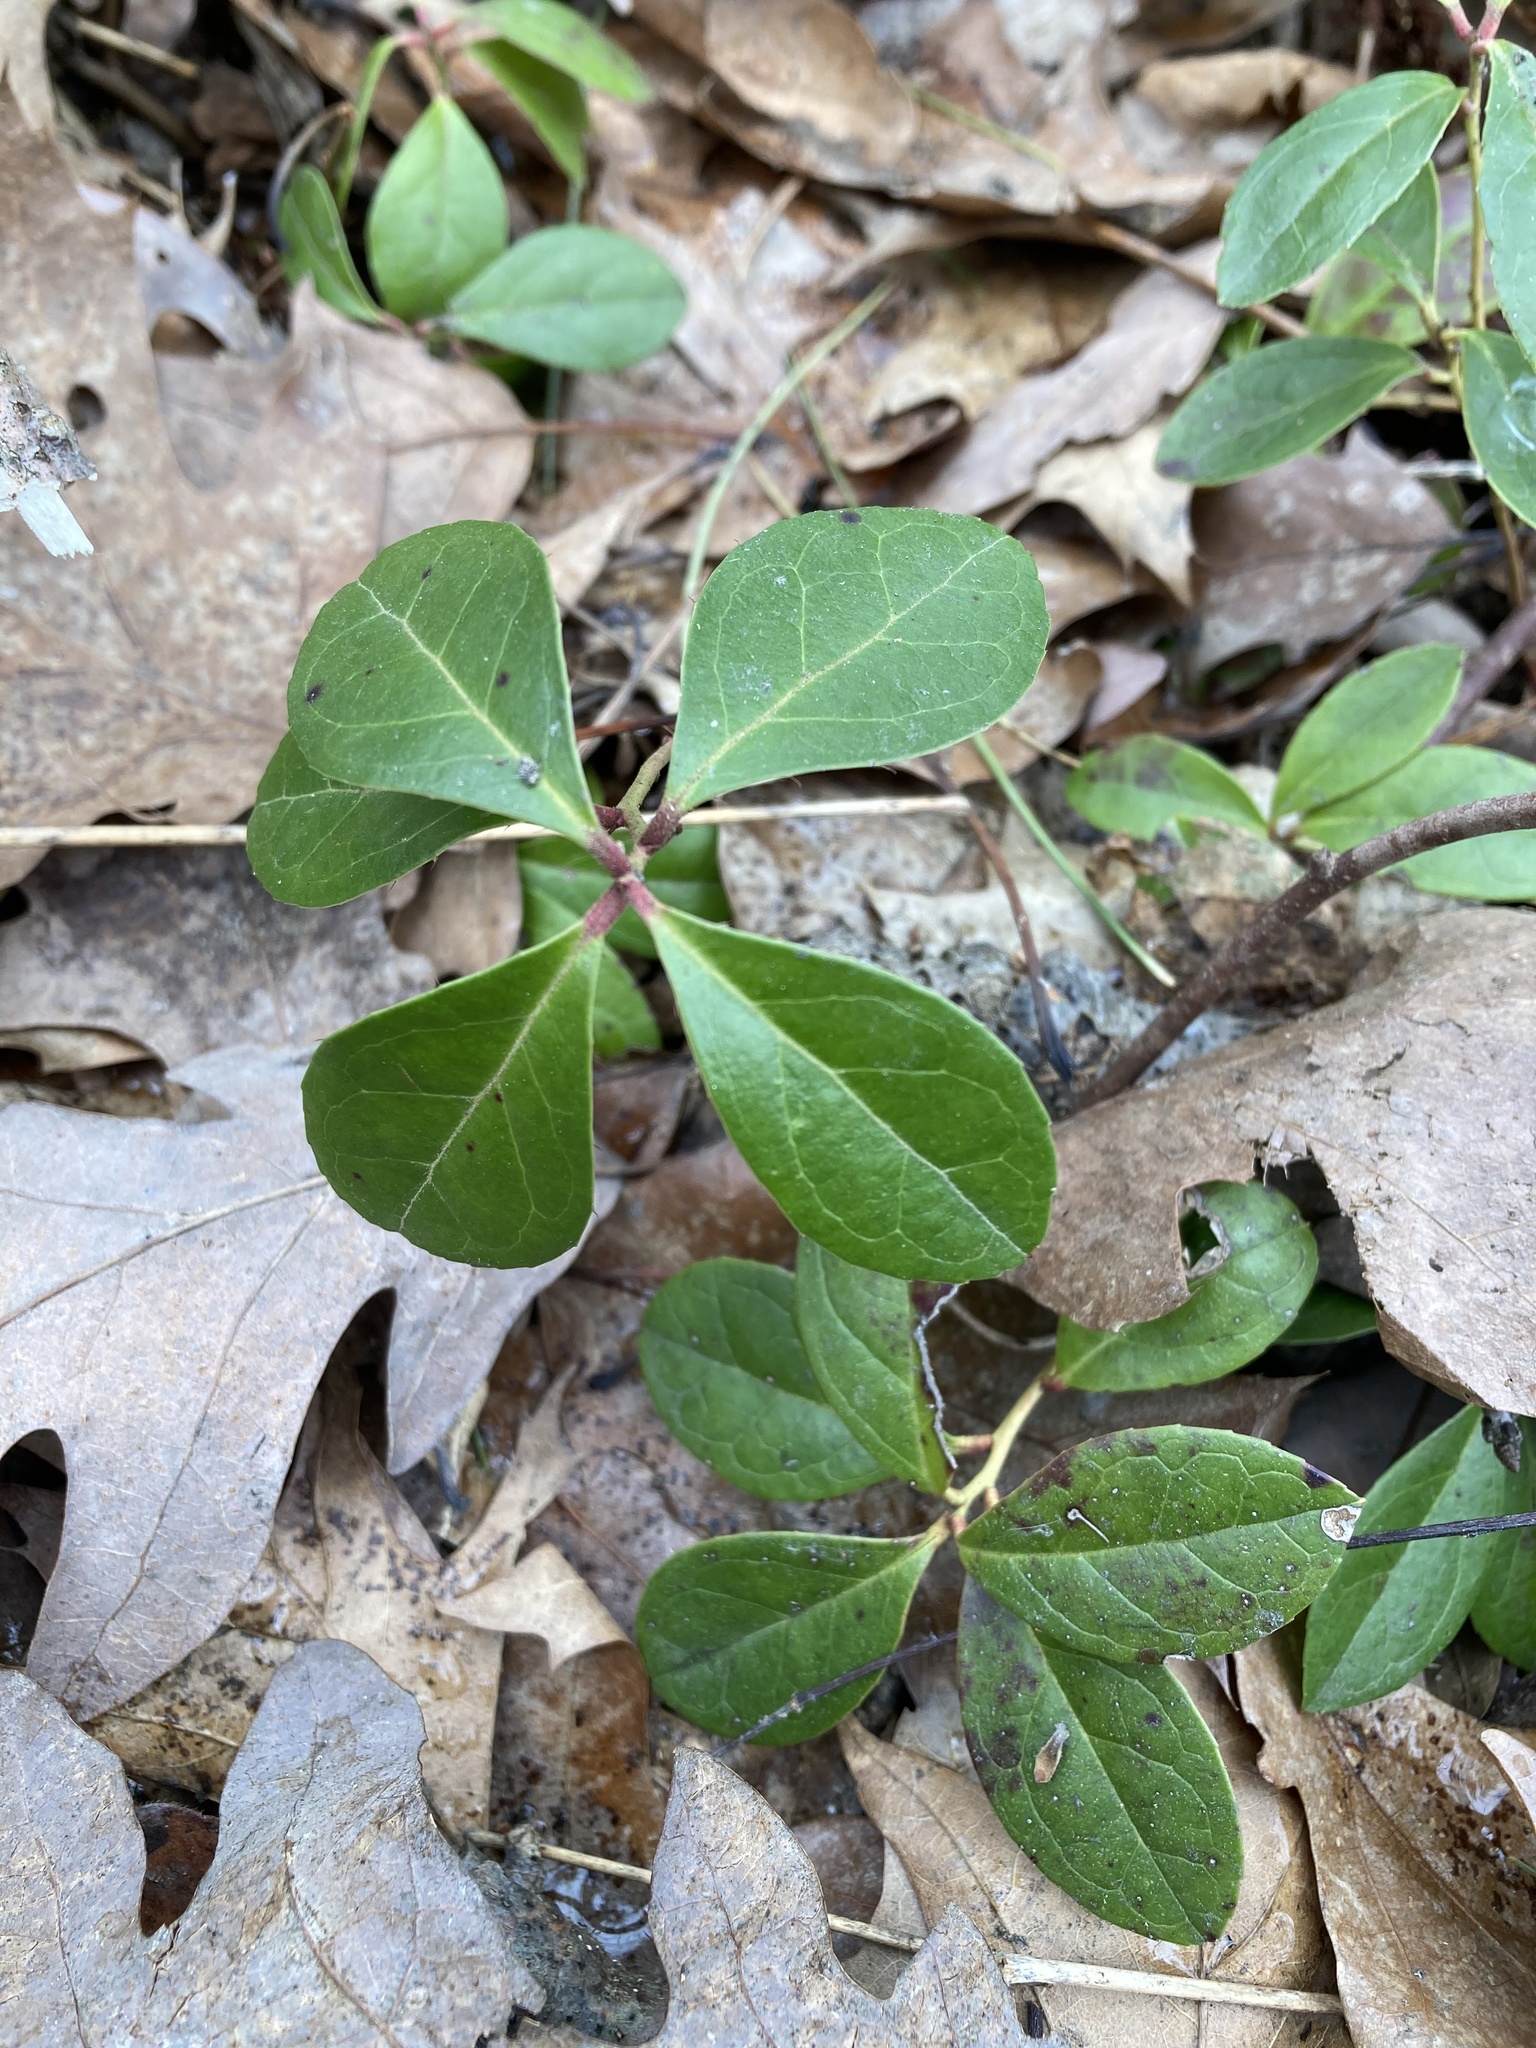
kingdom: Plantae
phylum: Tracheophyta
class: Magnoliopsida
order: Ericales
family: Ericaceae
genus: Gaultheria
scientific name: Gaultheria procumbens
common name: Checkerberry
